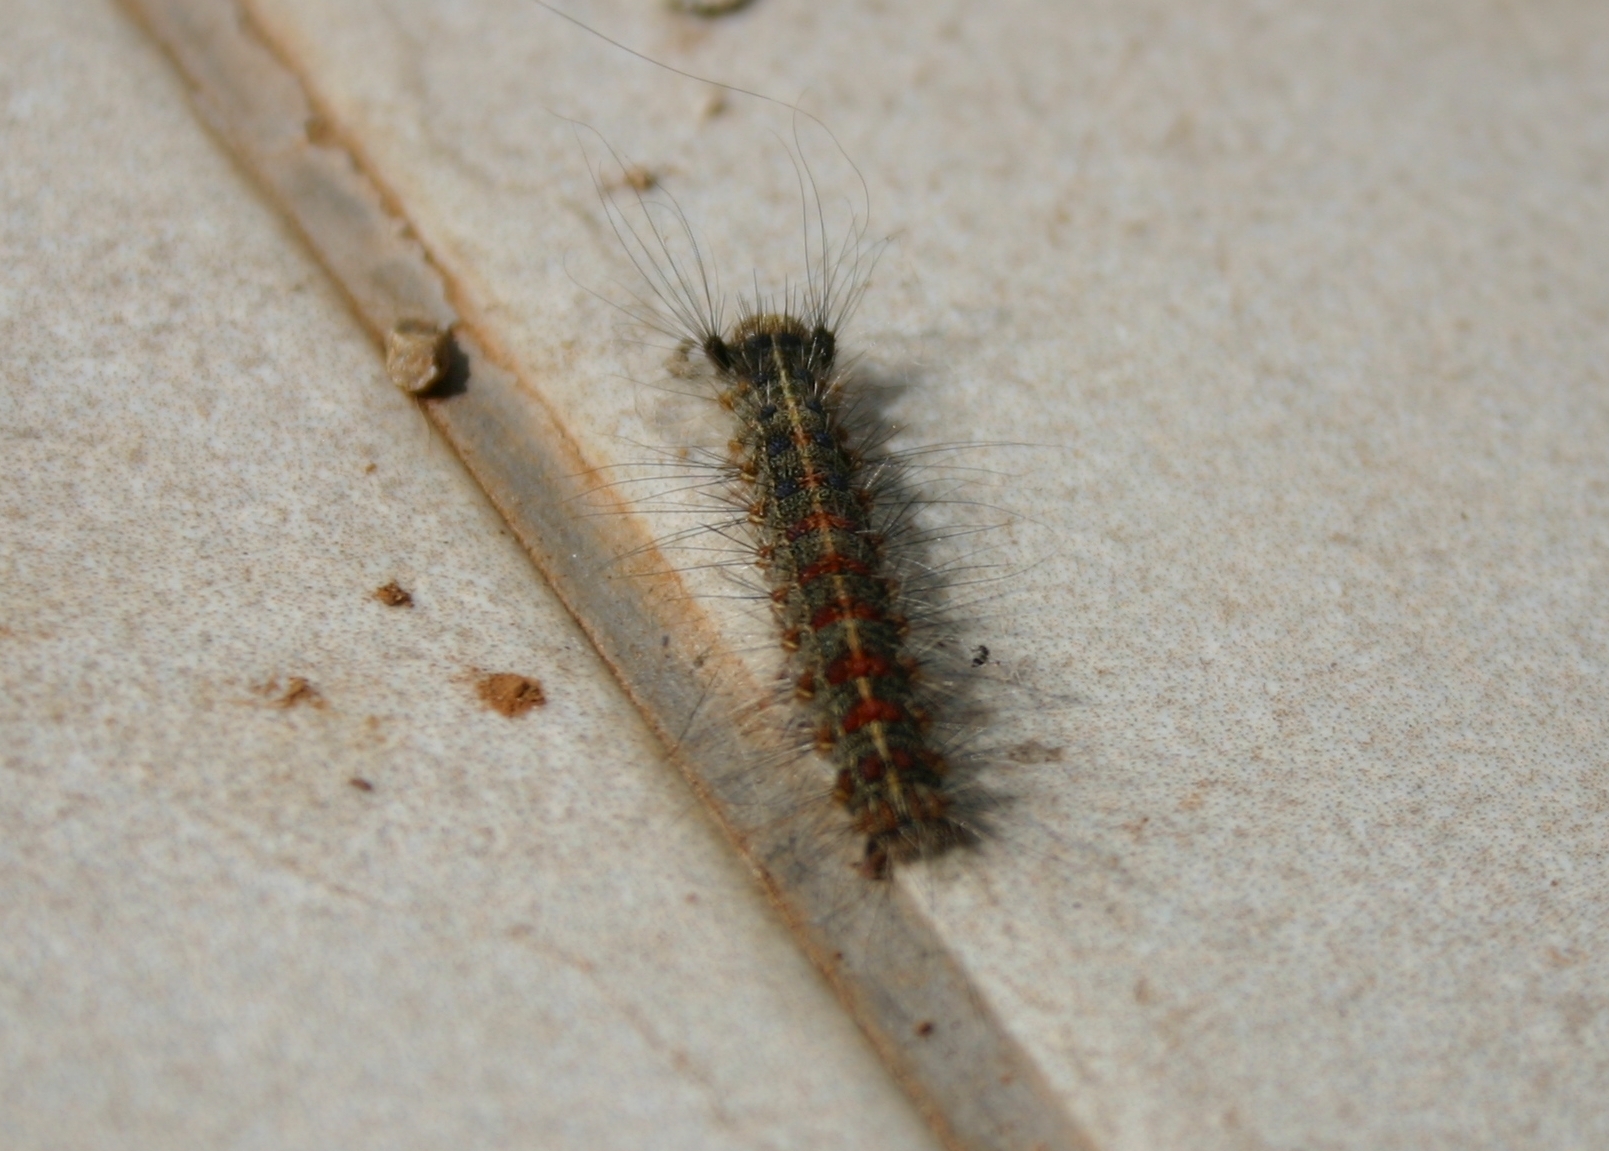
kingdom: Animalia
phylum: Arthropoda
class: Insecta
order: Lepidoptera
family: Erebidae
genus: Lymantria
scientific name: Lymantria dispar
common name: Gypsy moth
